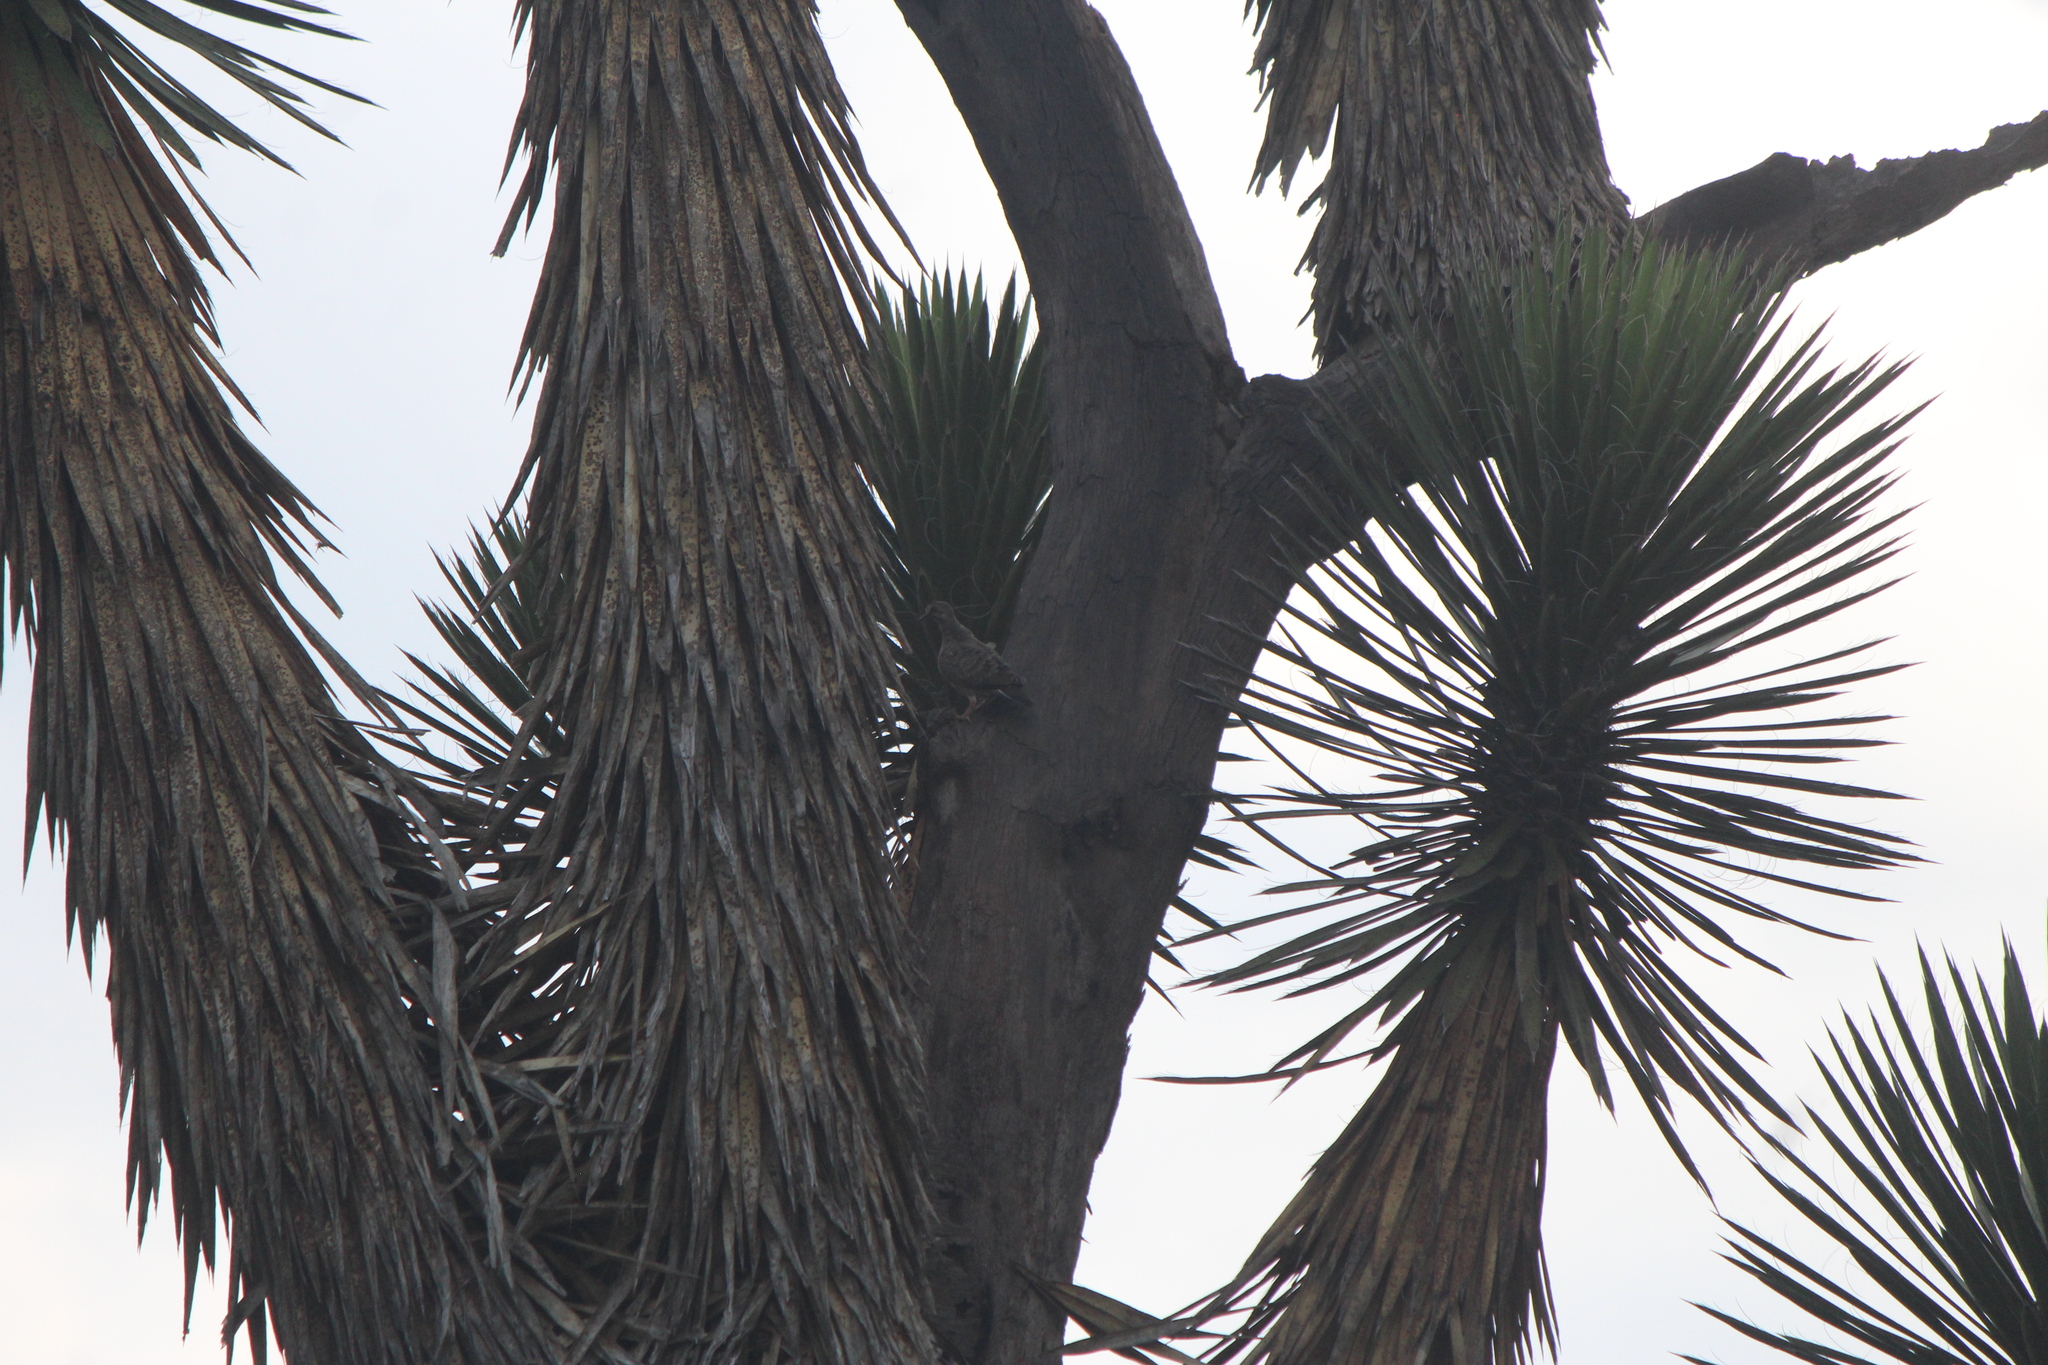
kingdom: Animalia
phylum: Chordata
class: Aves
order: Columbiformes
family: Columbidae
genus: Zenaida
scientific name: Zenaida macroura
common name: Mourning dove
